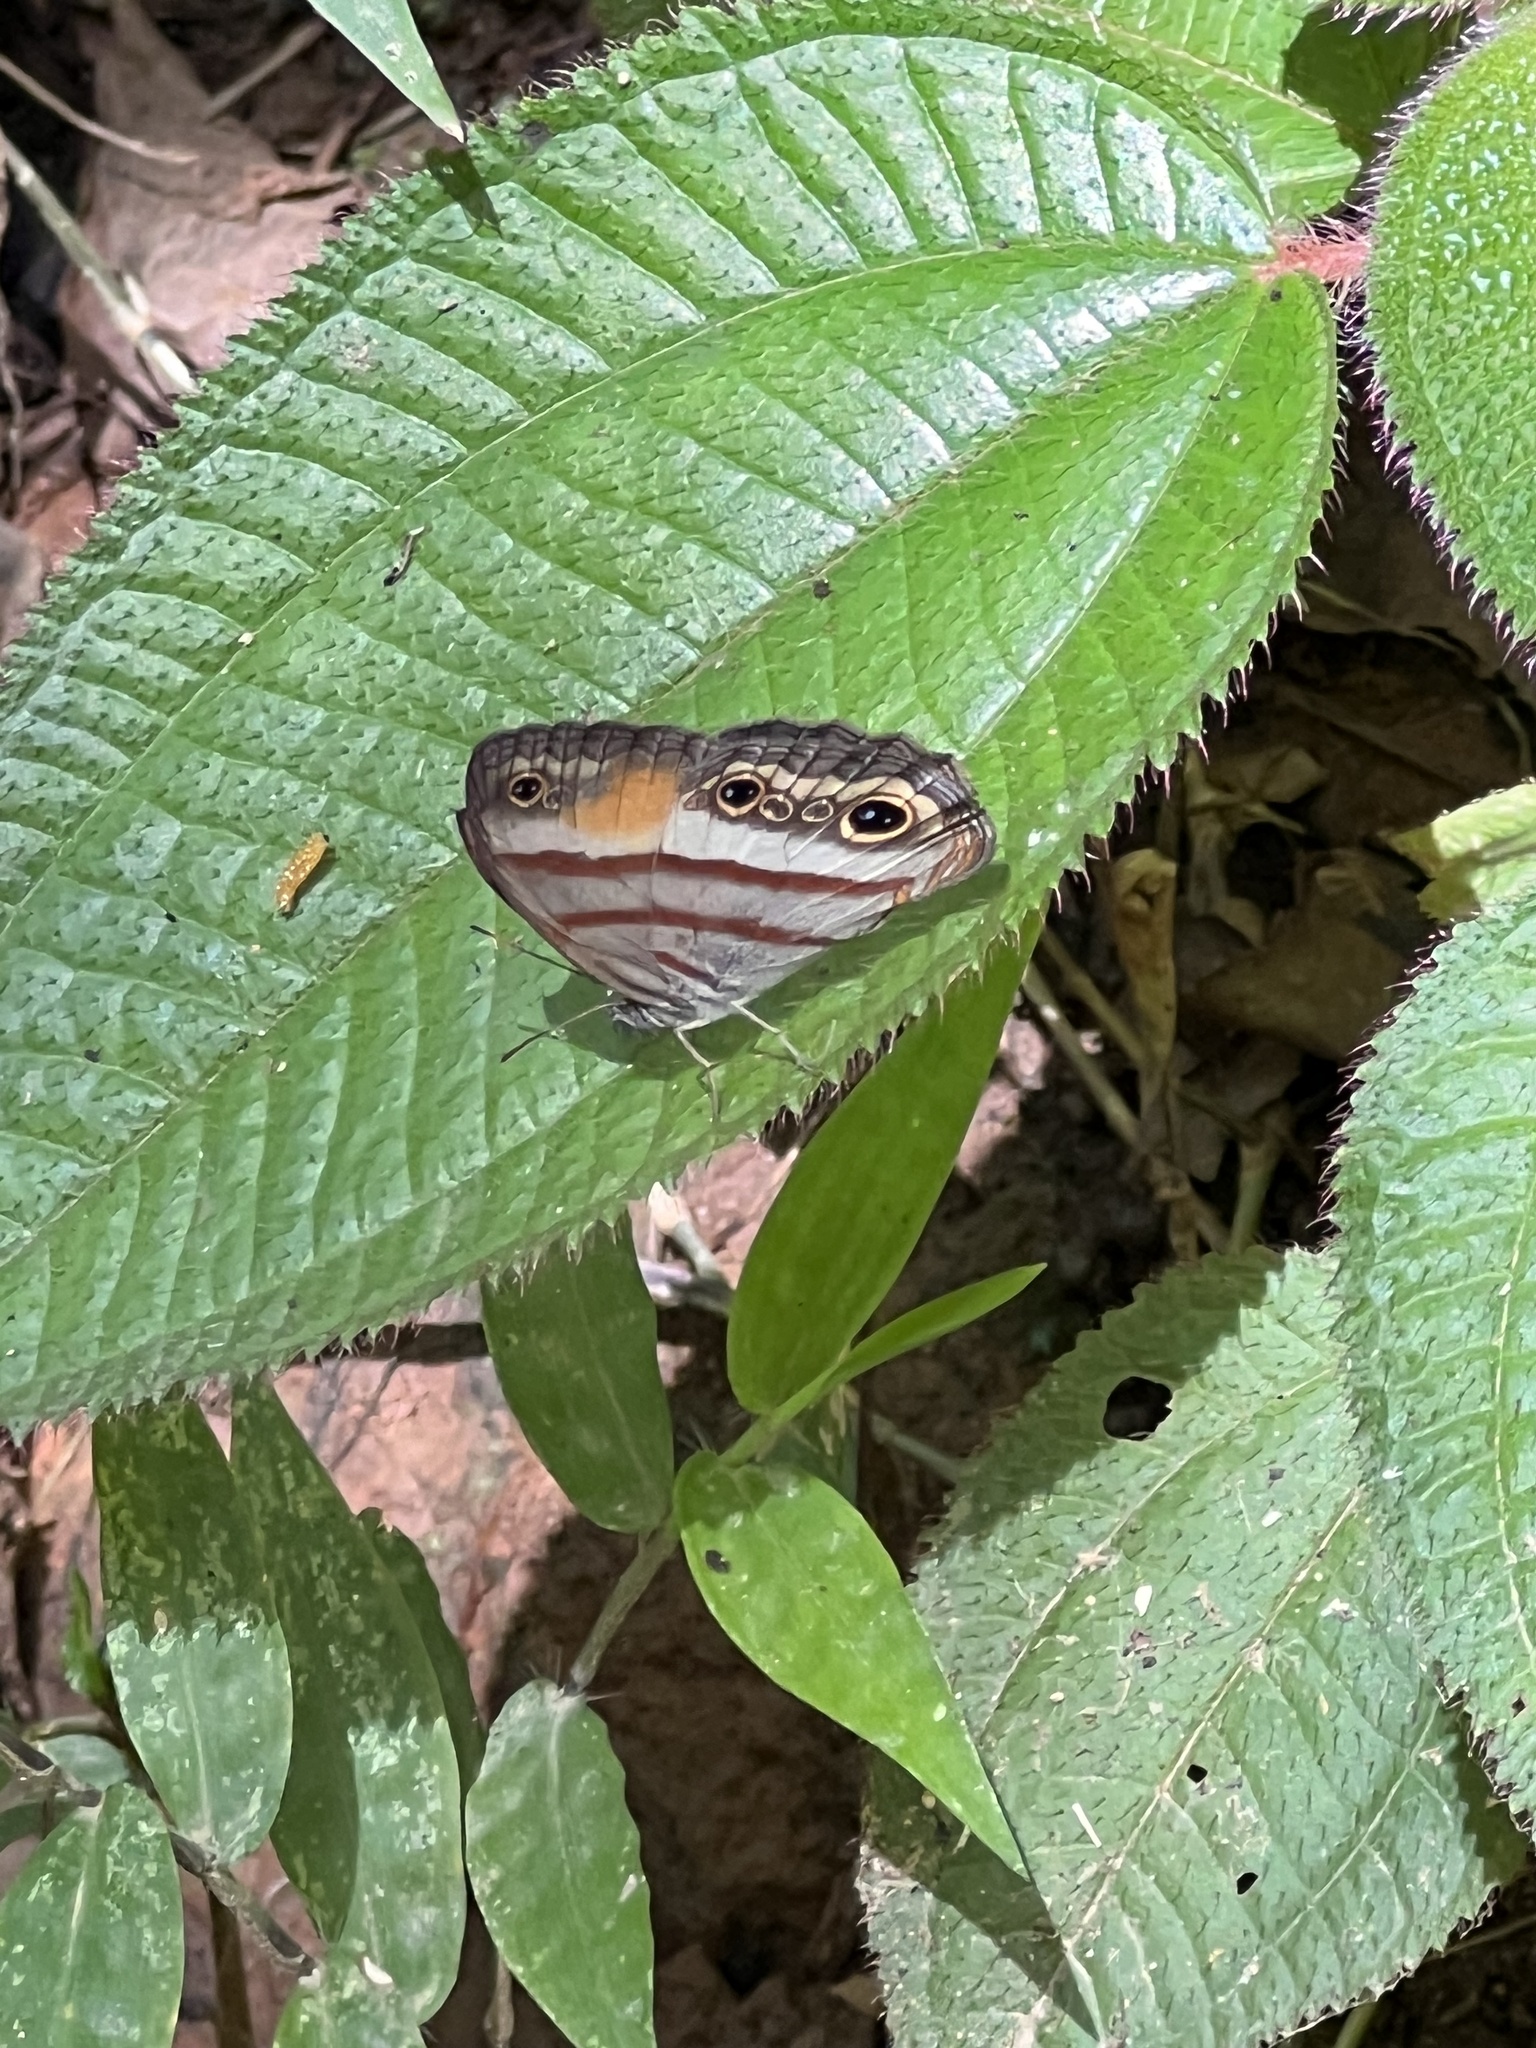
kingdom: Animalia
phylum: Arthropoda
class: Insecta
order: Lepidoptera
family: Nymphalidae
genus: Paryphthimoides
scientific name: Paryphthimoides
